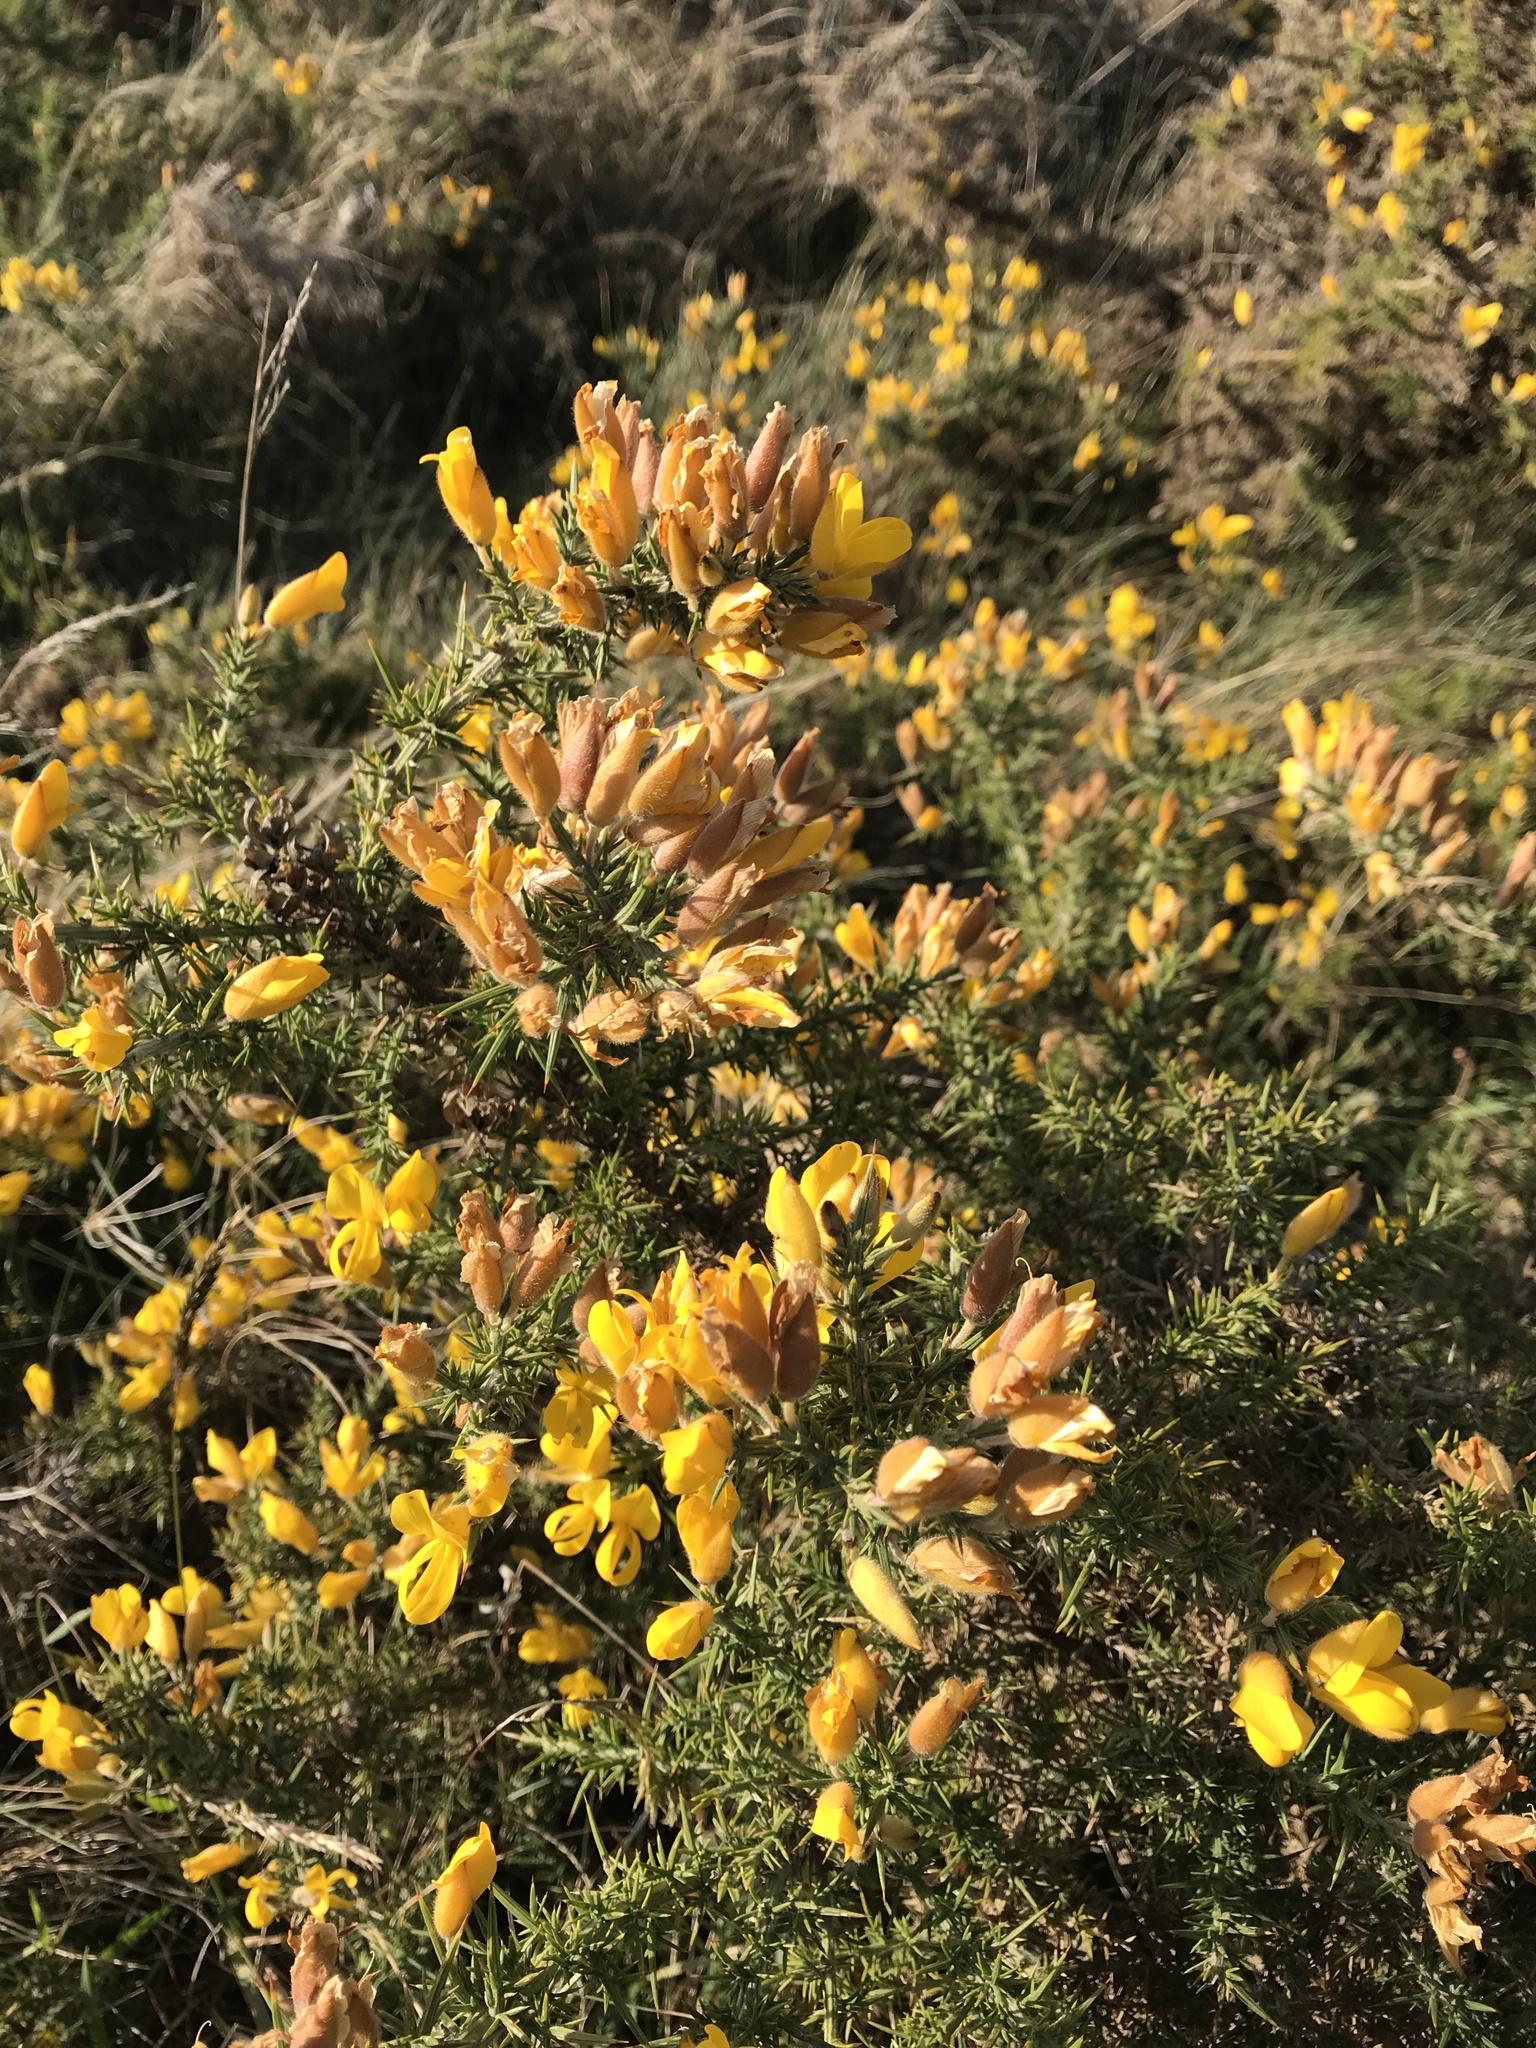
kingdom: Plantae
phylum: Tracheophyta
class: Magnoliopsida
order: Fabales
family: Fabaceae
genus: Ulex
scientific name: Ulex europaeus
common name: Common gorse
